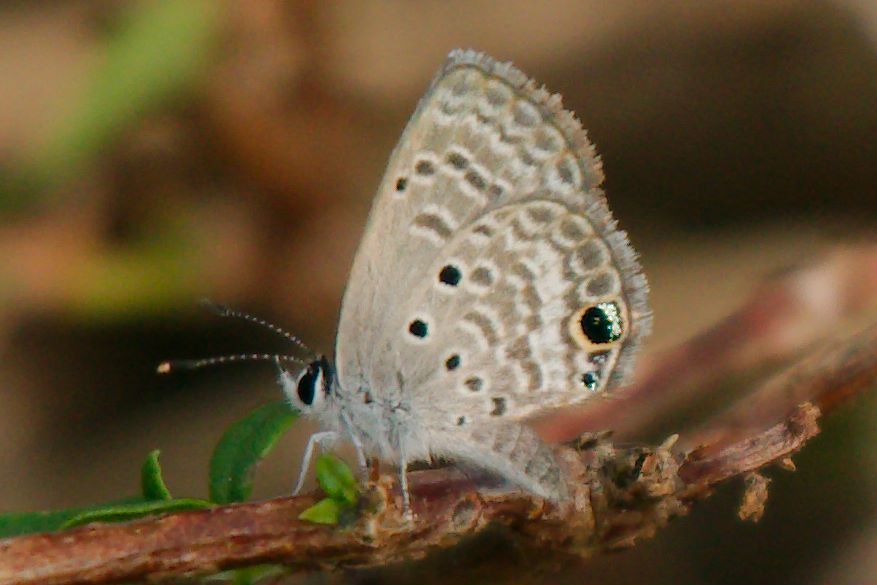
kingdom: Animalia
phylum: Arthropoda
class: Insecta
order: Lepidoptera
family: Lycaenidae
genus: Hemiargus
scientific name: Hemiargus ceraunus
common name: Ceraunus blue
